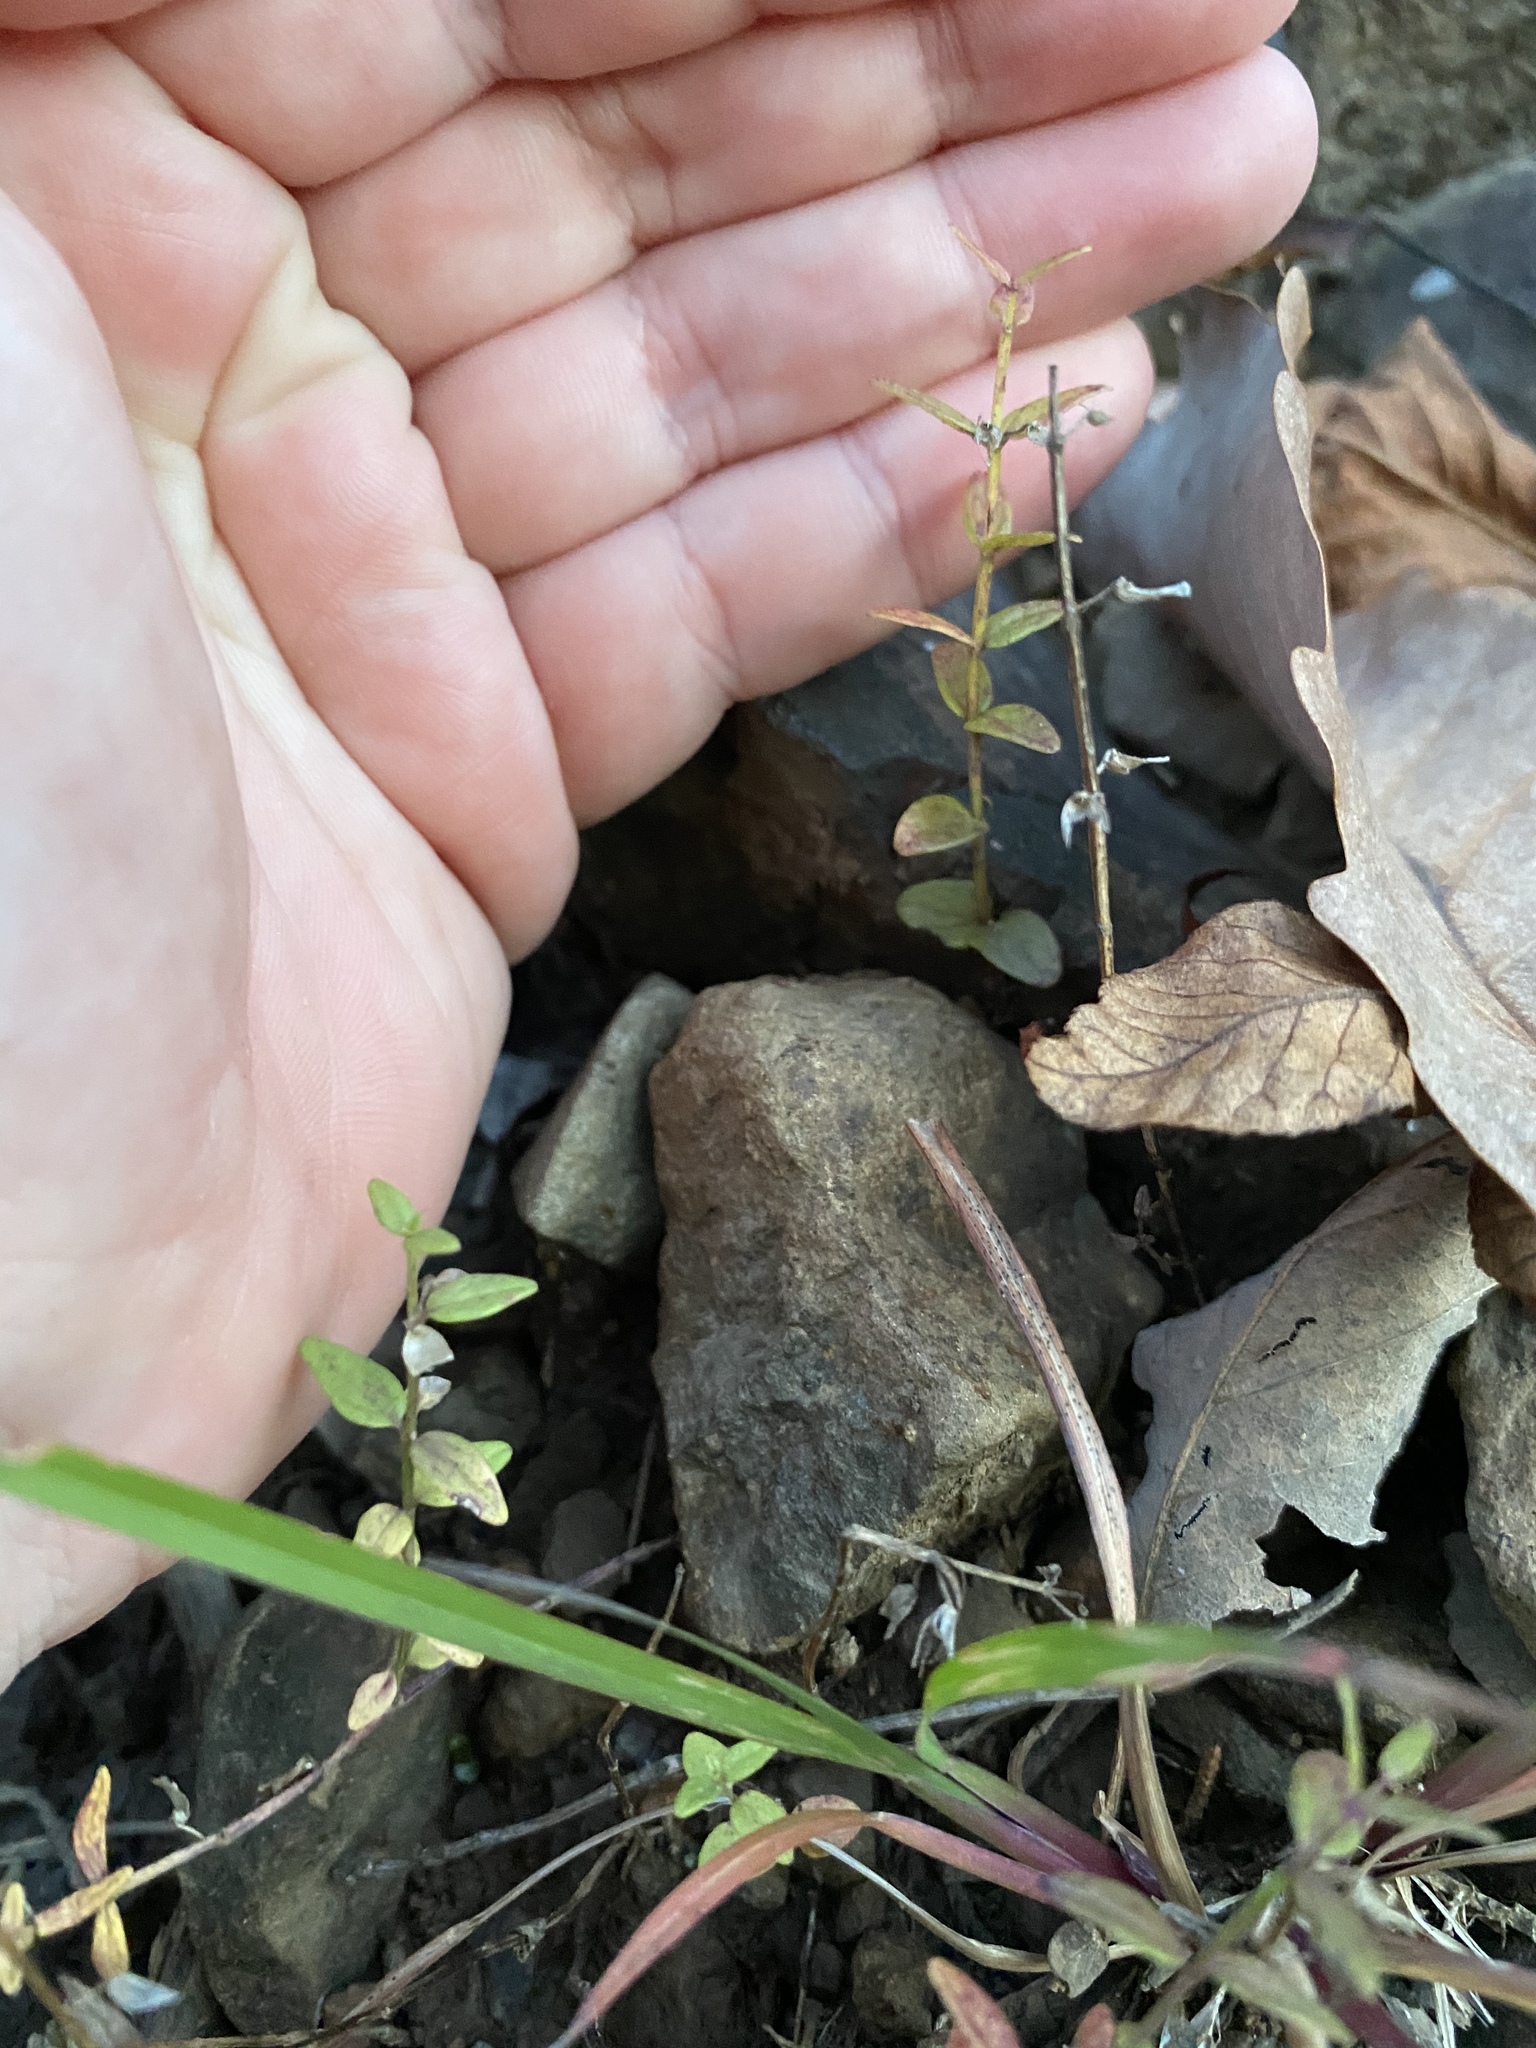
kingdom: Plantae
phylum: Tracheophyta
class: Magnoliopsida
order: Lamiales
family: Lamiaceae
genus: Scutellaria
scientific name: Scutellaria parvula
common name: Little scullcap
